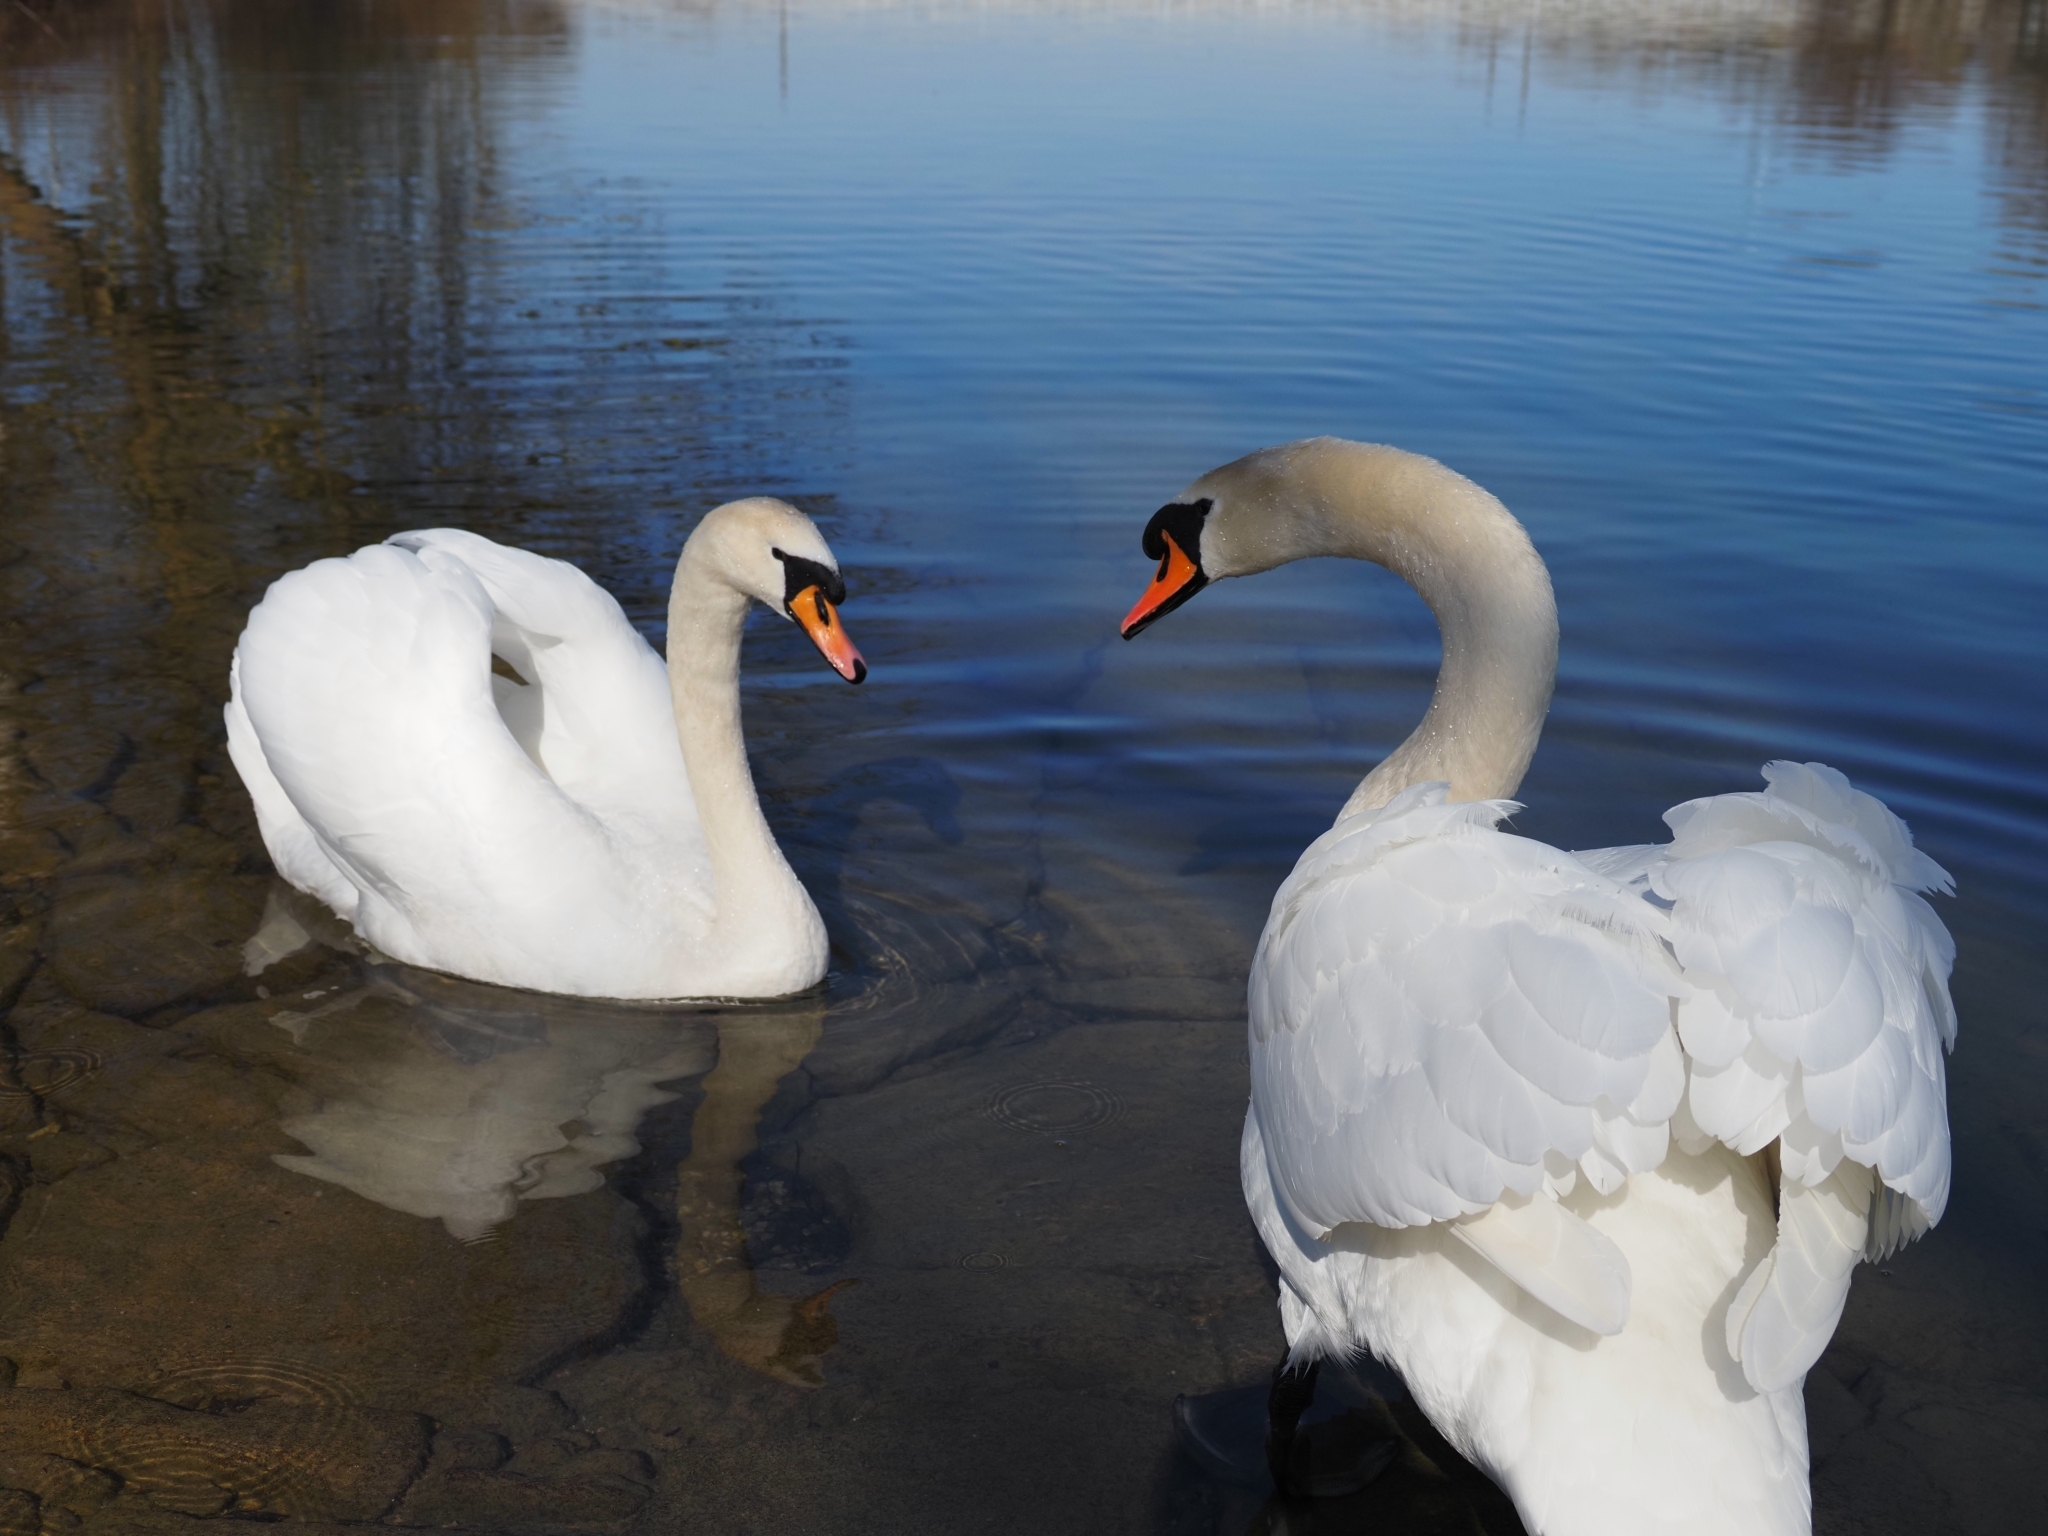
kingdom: Animalia
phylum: Chordata
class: Aves
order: Anseriformes
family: Anatidae
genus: Cygnus
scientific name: Cygnus olor
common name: Mute swan
